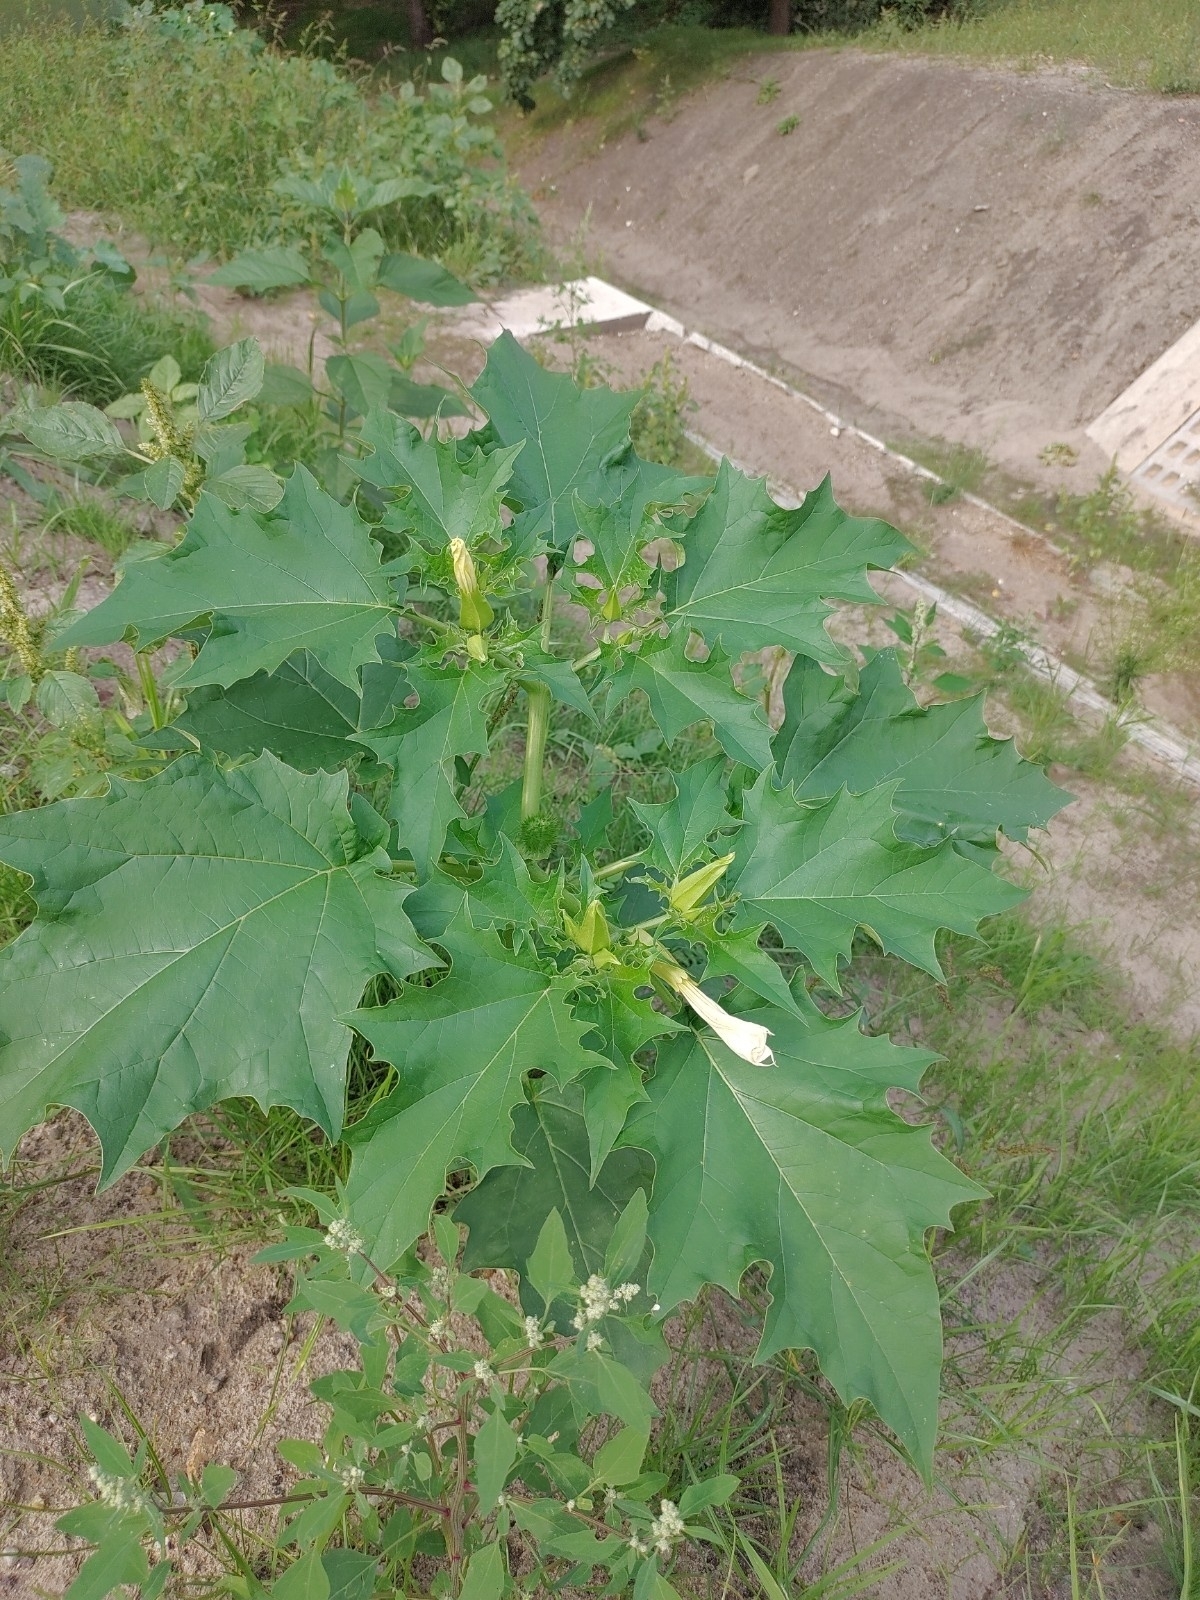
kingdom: Plantae
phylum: Tracheophyta
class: Magnoliopsida
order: Solanales
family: Solanaceae
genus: Datura
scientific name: Datura stramonium
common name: Thorn-apple
